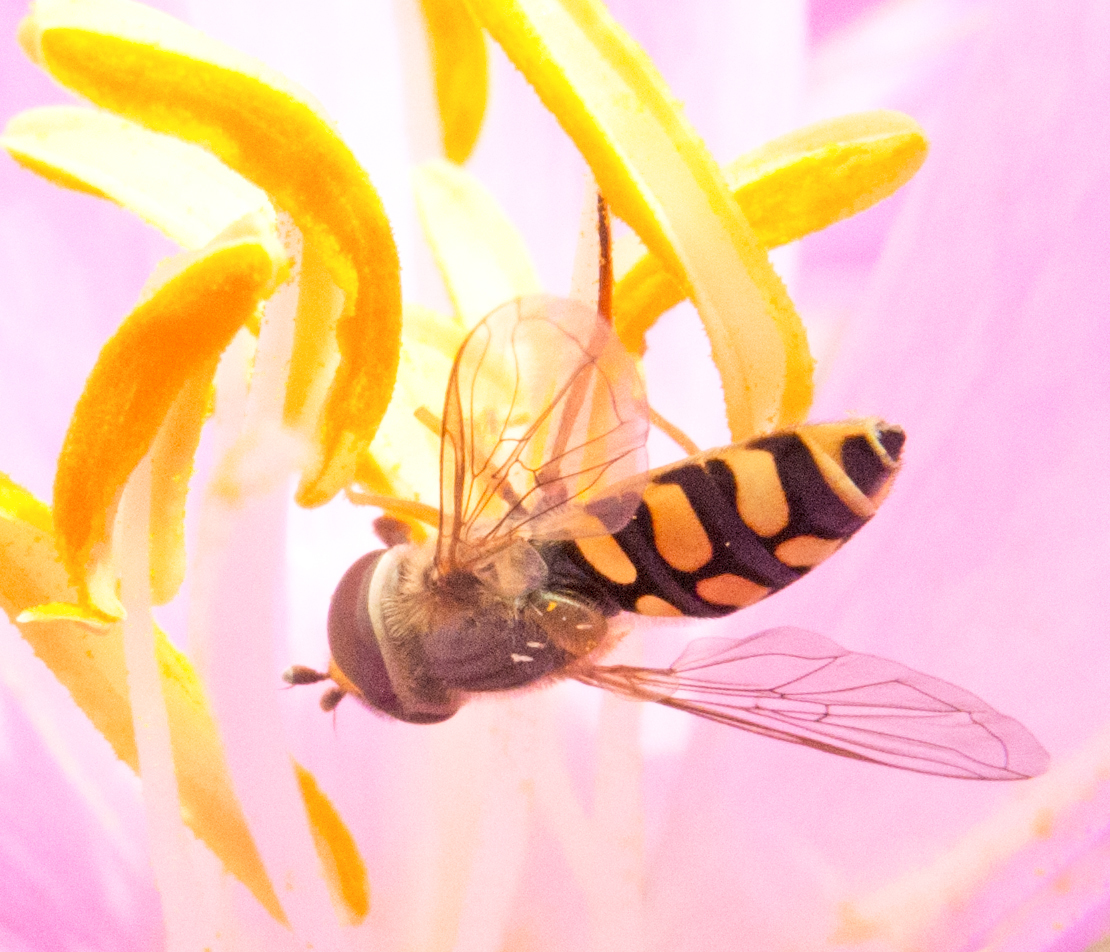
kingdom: Animalia
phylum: Arthropoda
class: Insecta
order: Diptera
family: Syrphidae
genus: Eupeodes
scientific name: Eupeodes corollae
